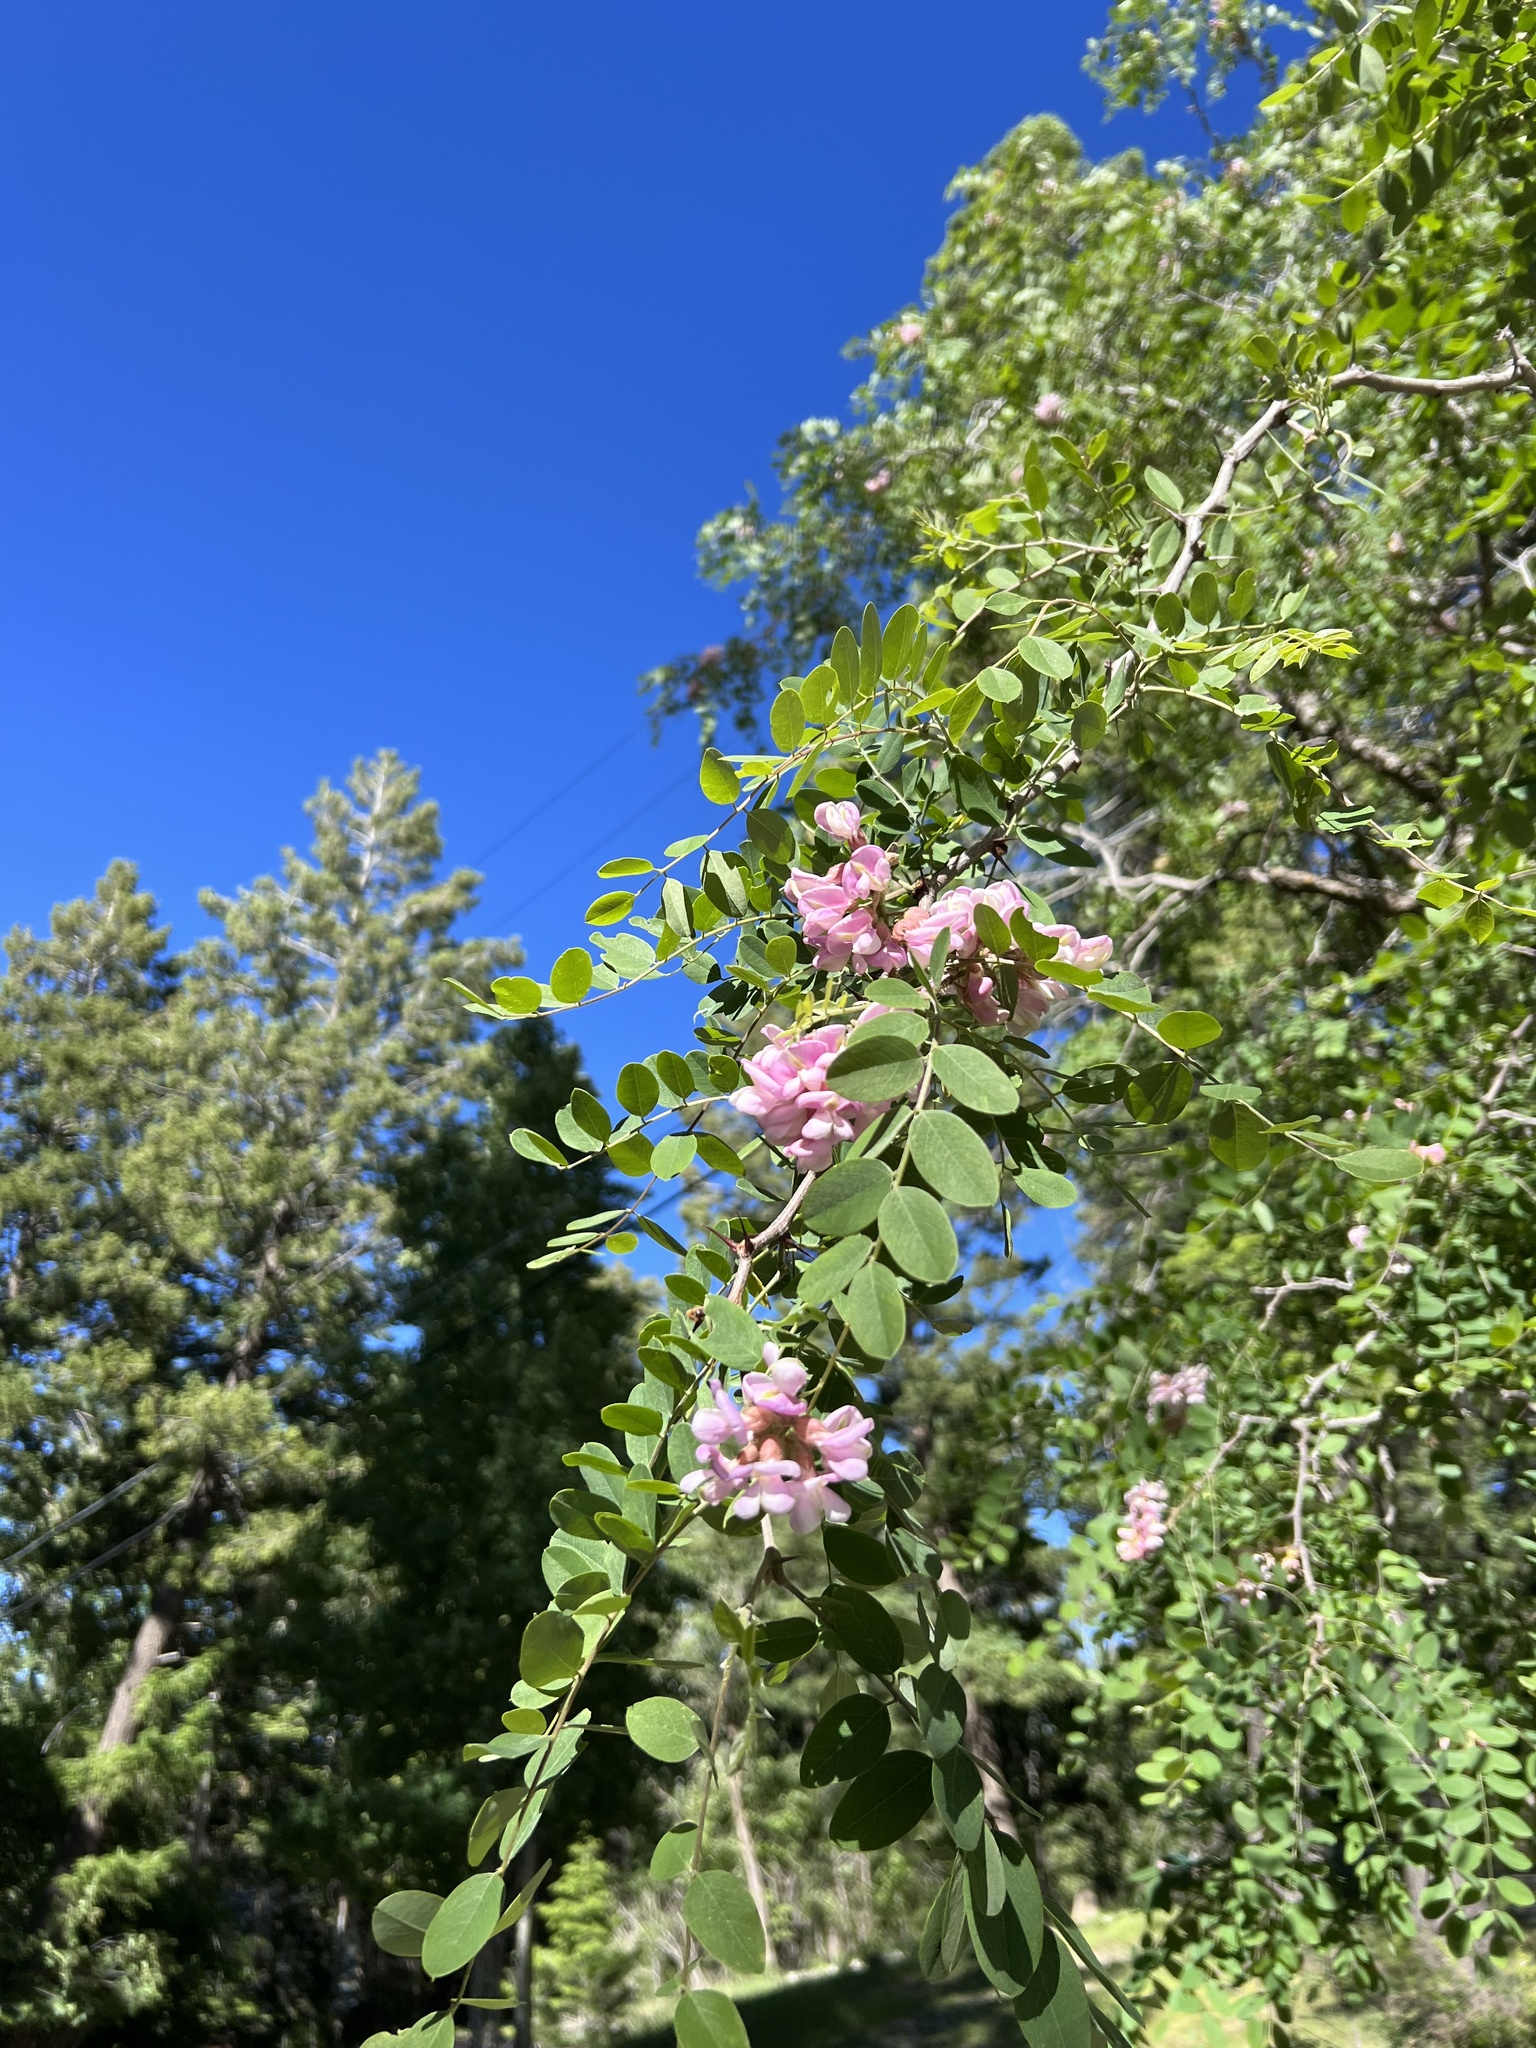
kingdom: Plantae
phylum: Tracheophyta
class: Magnoliopsida
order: Fabales
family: Fabaceae
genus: Robinia
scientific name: Robinia neomexicana
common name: New mexico locust
